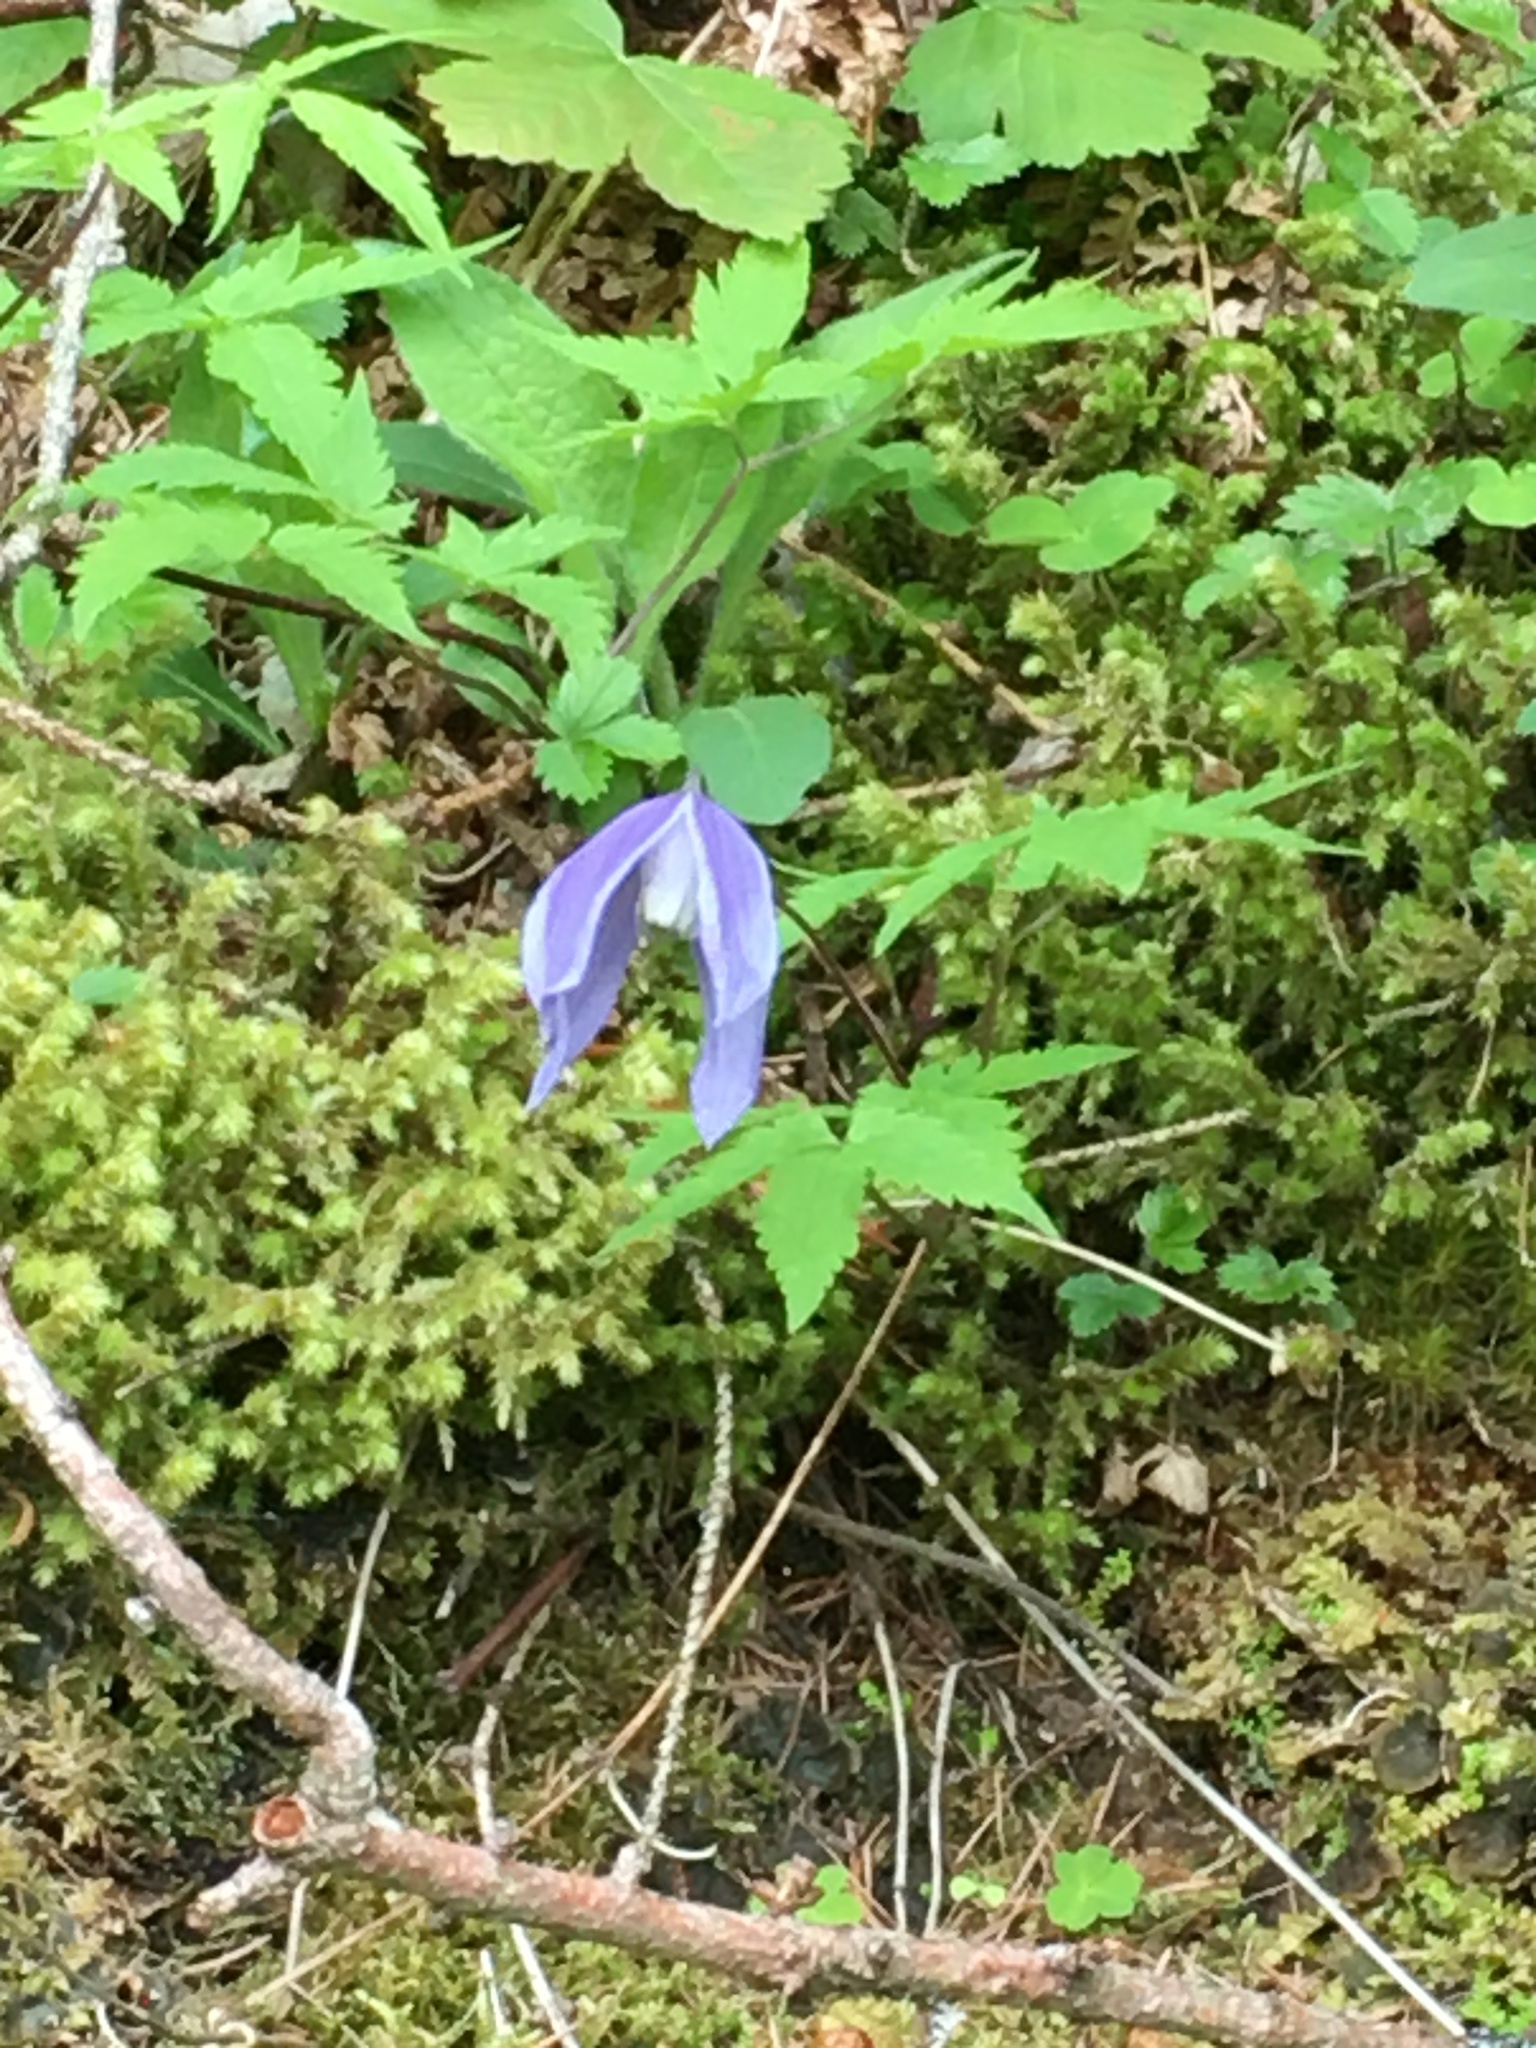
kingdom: Plantae
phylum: Tracheophyta
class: Magnoliopsida
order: Ranunculales
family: Ranunculaceae
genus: Clematis
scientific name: Clematis alpina
